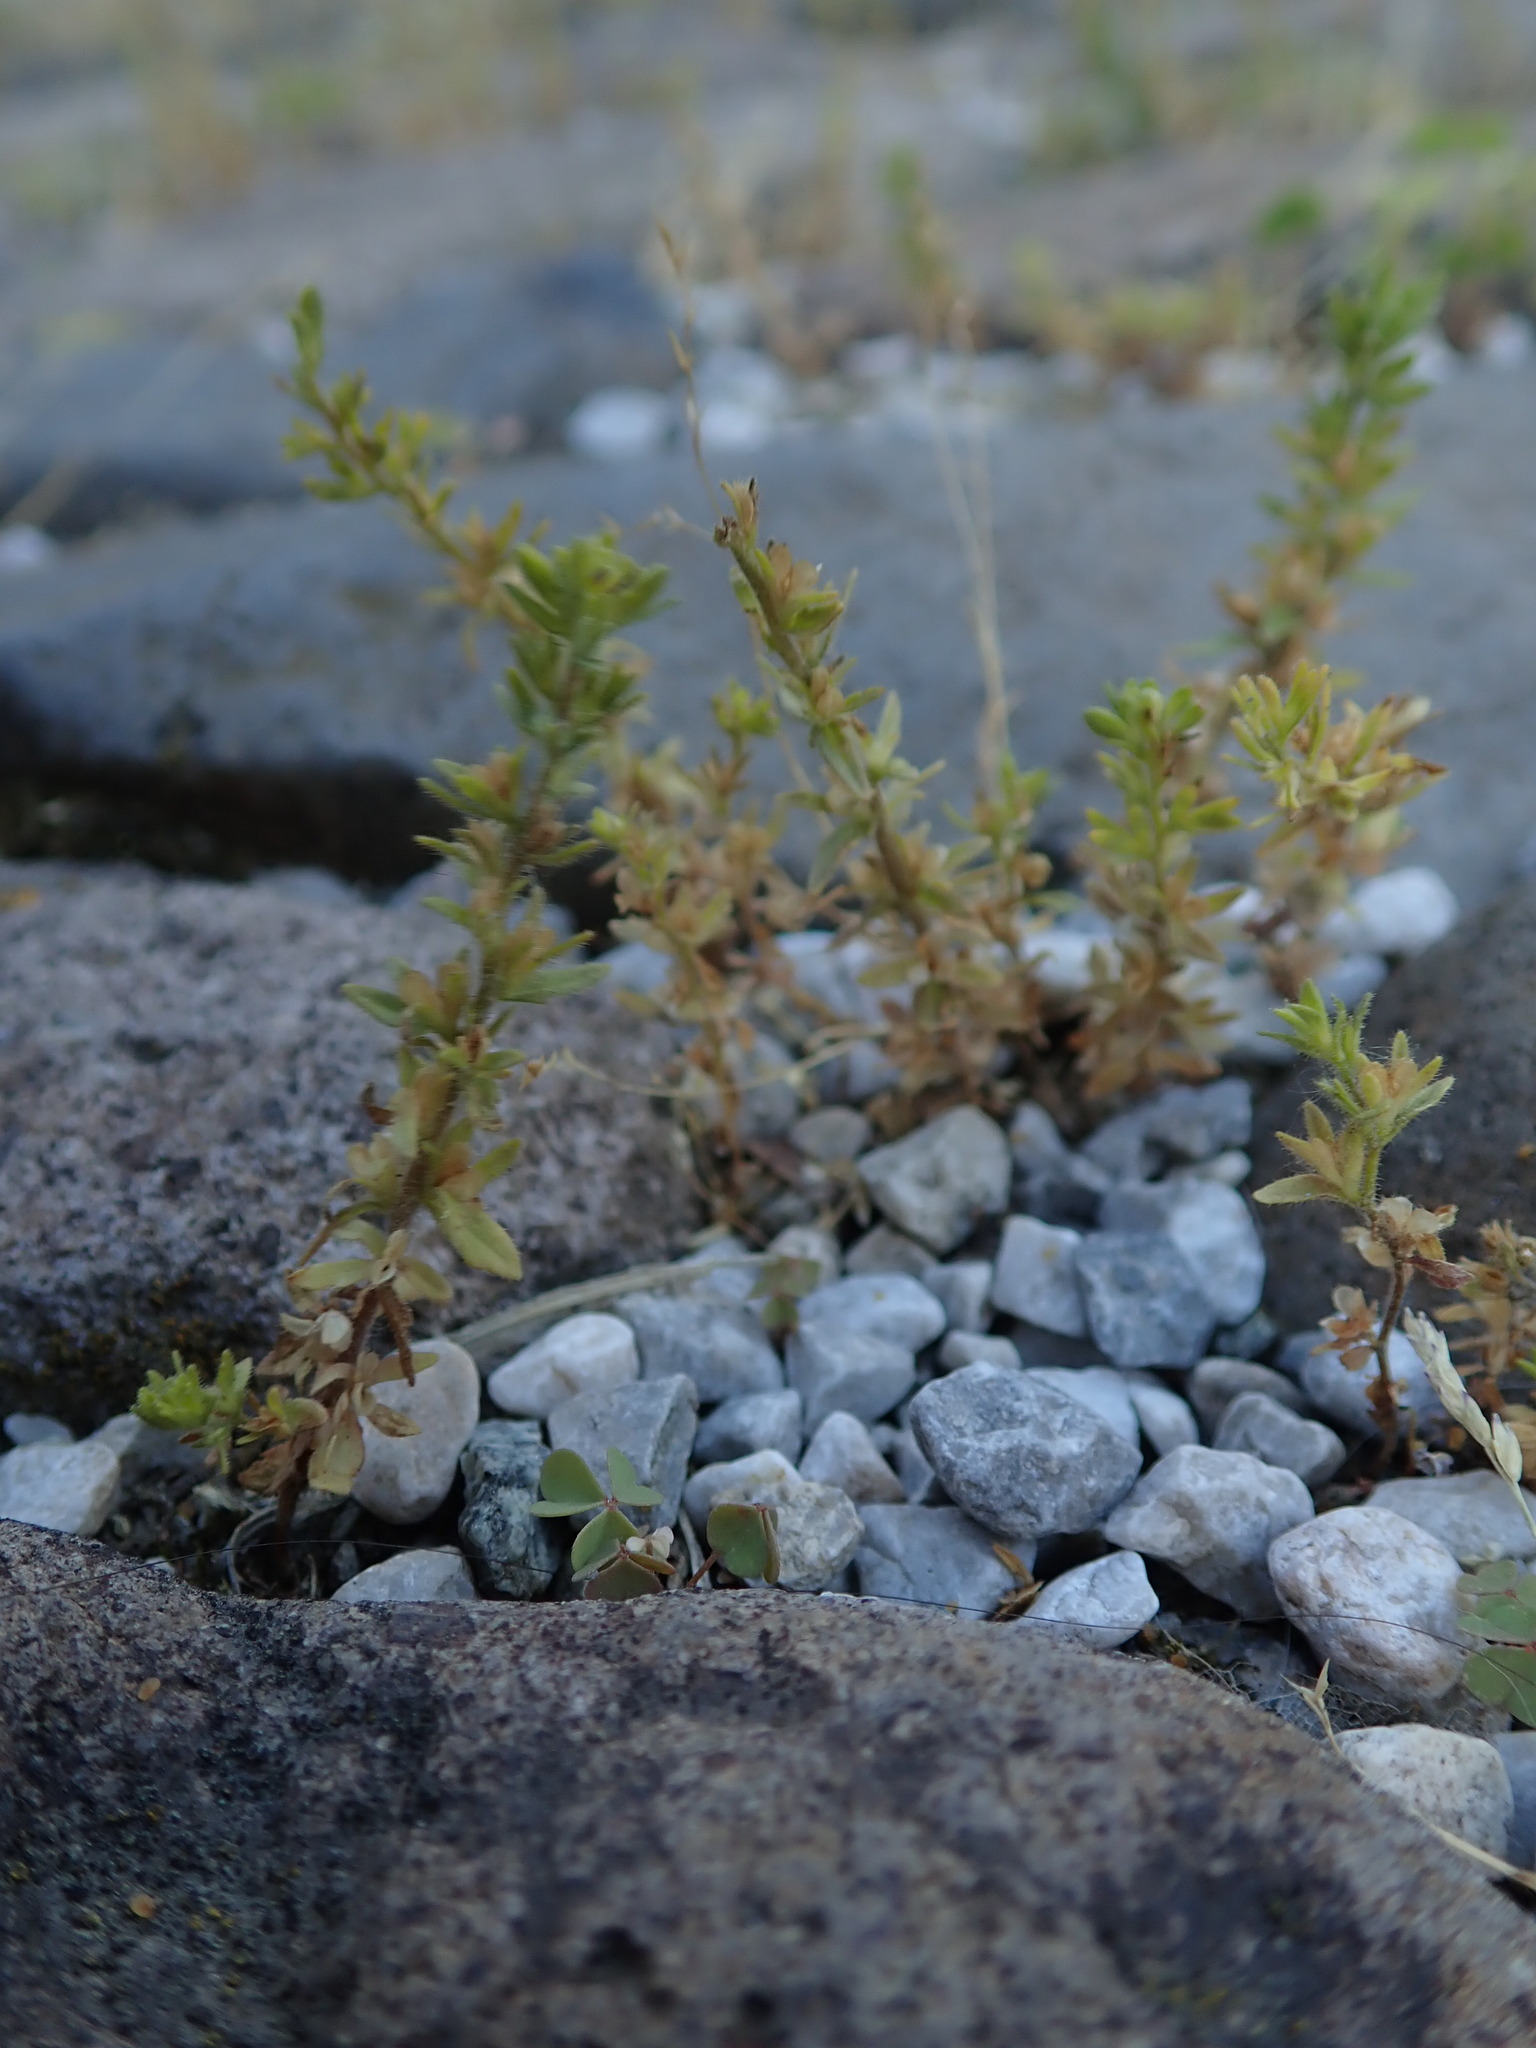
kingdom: Plantae
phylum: Tracheophyta
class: Magnoliopsida
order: Lamiales
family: Plantaginaceae
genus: Veronica
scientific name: Veronica arvensis
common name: Corn speedwell
